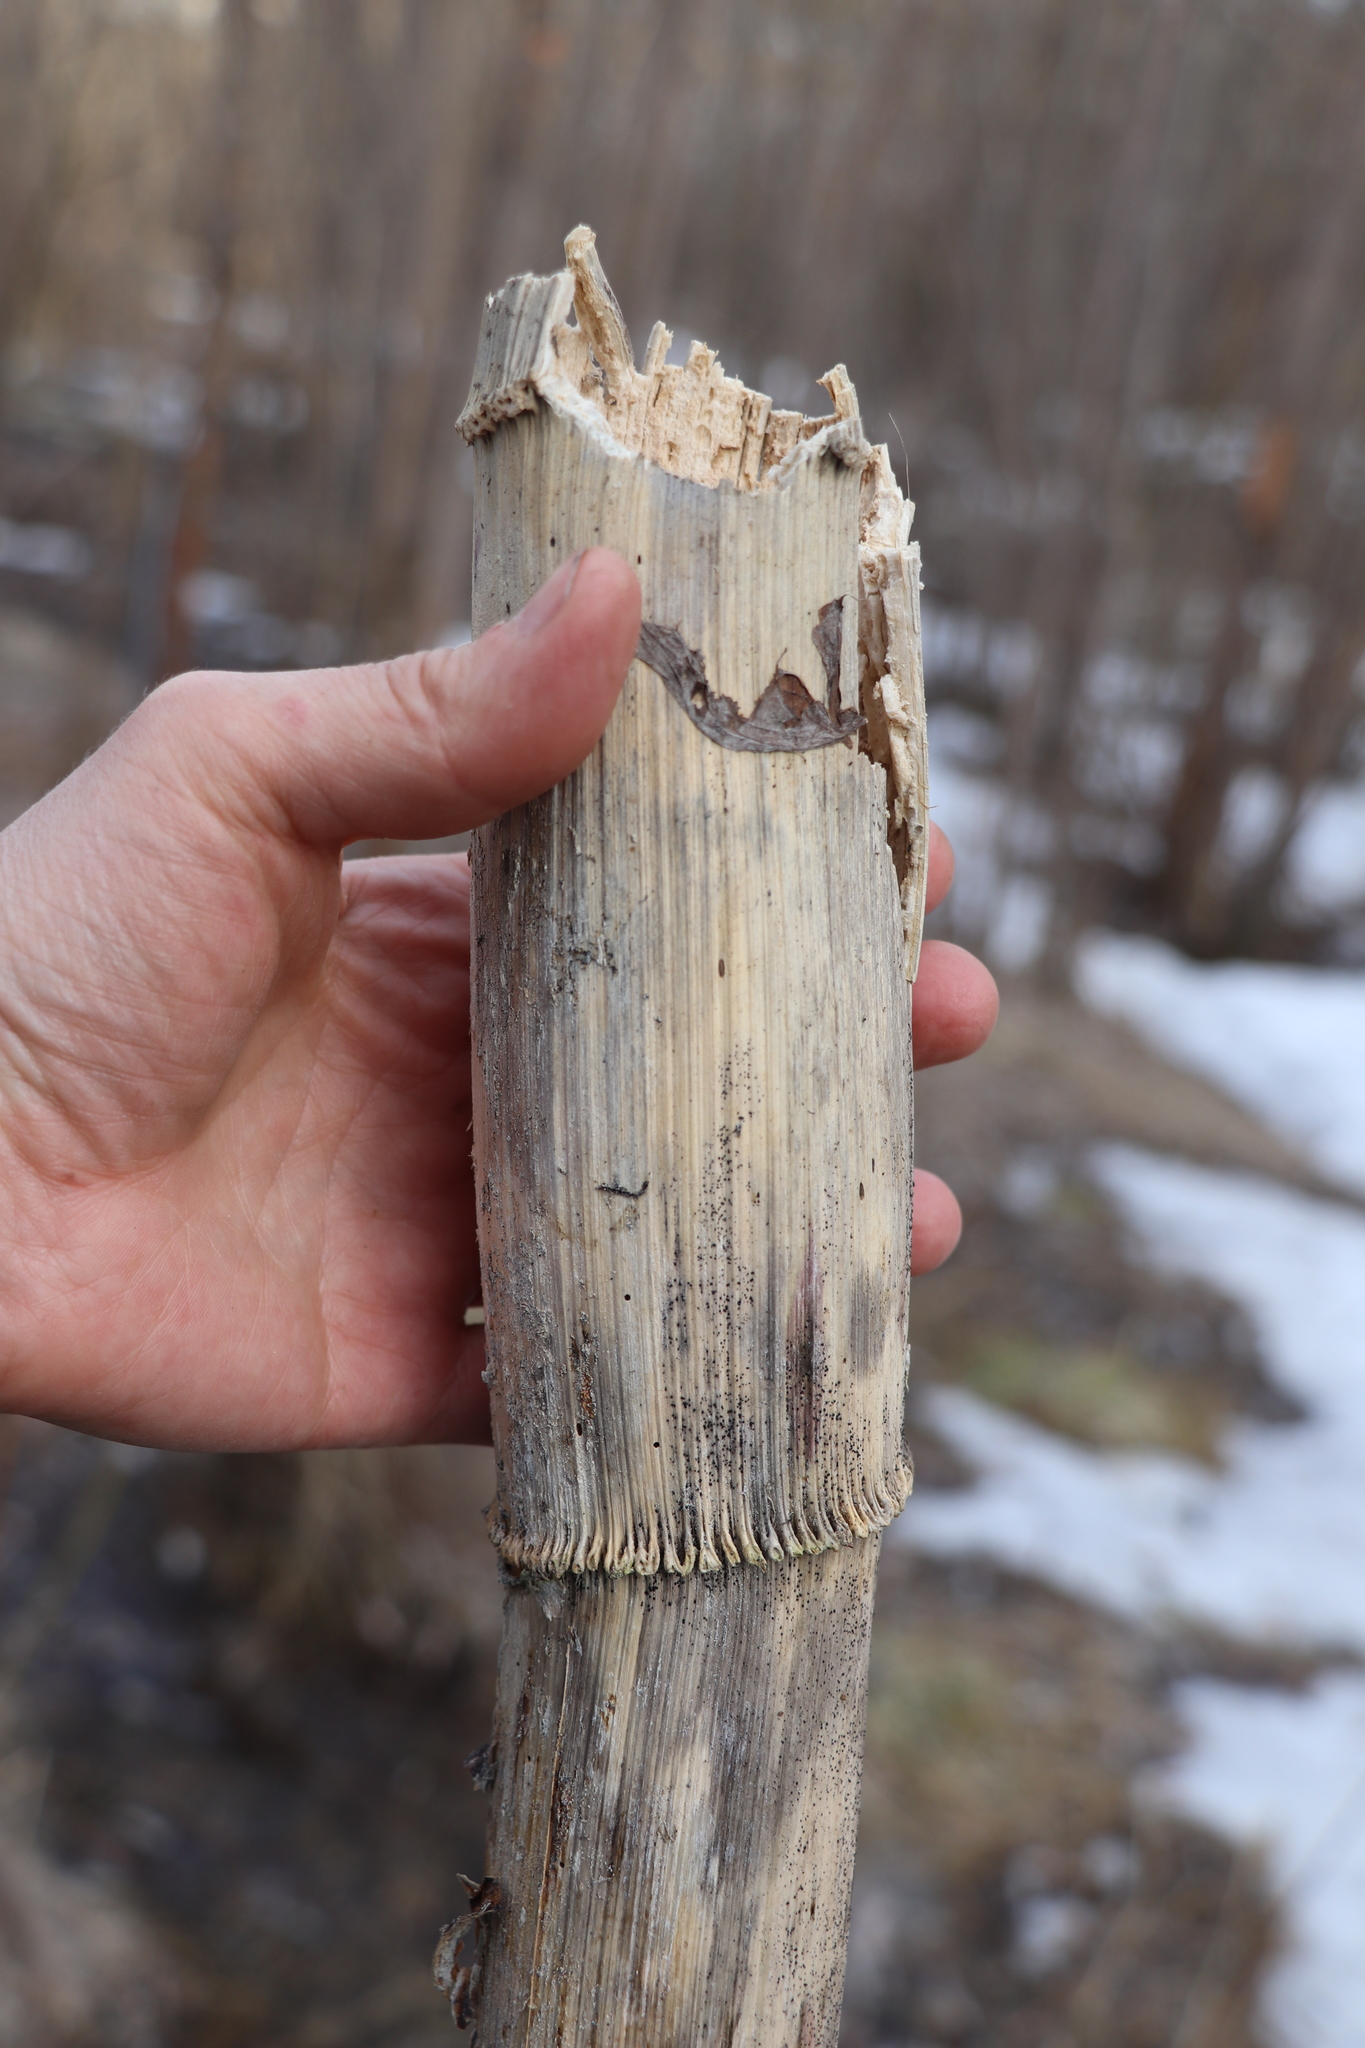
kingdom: Plantae
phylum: Tracheophyta
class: Magnoliopsida
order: Apiales
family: Apiaceae
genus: Angelica
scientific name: Angelica decurrens
